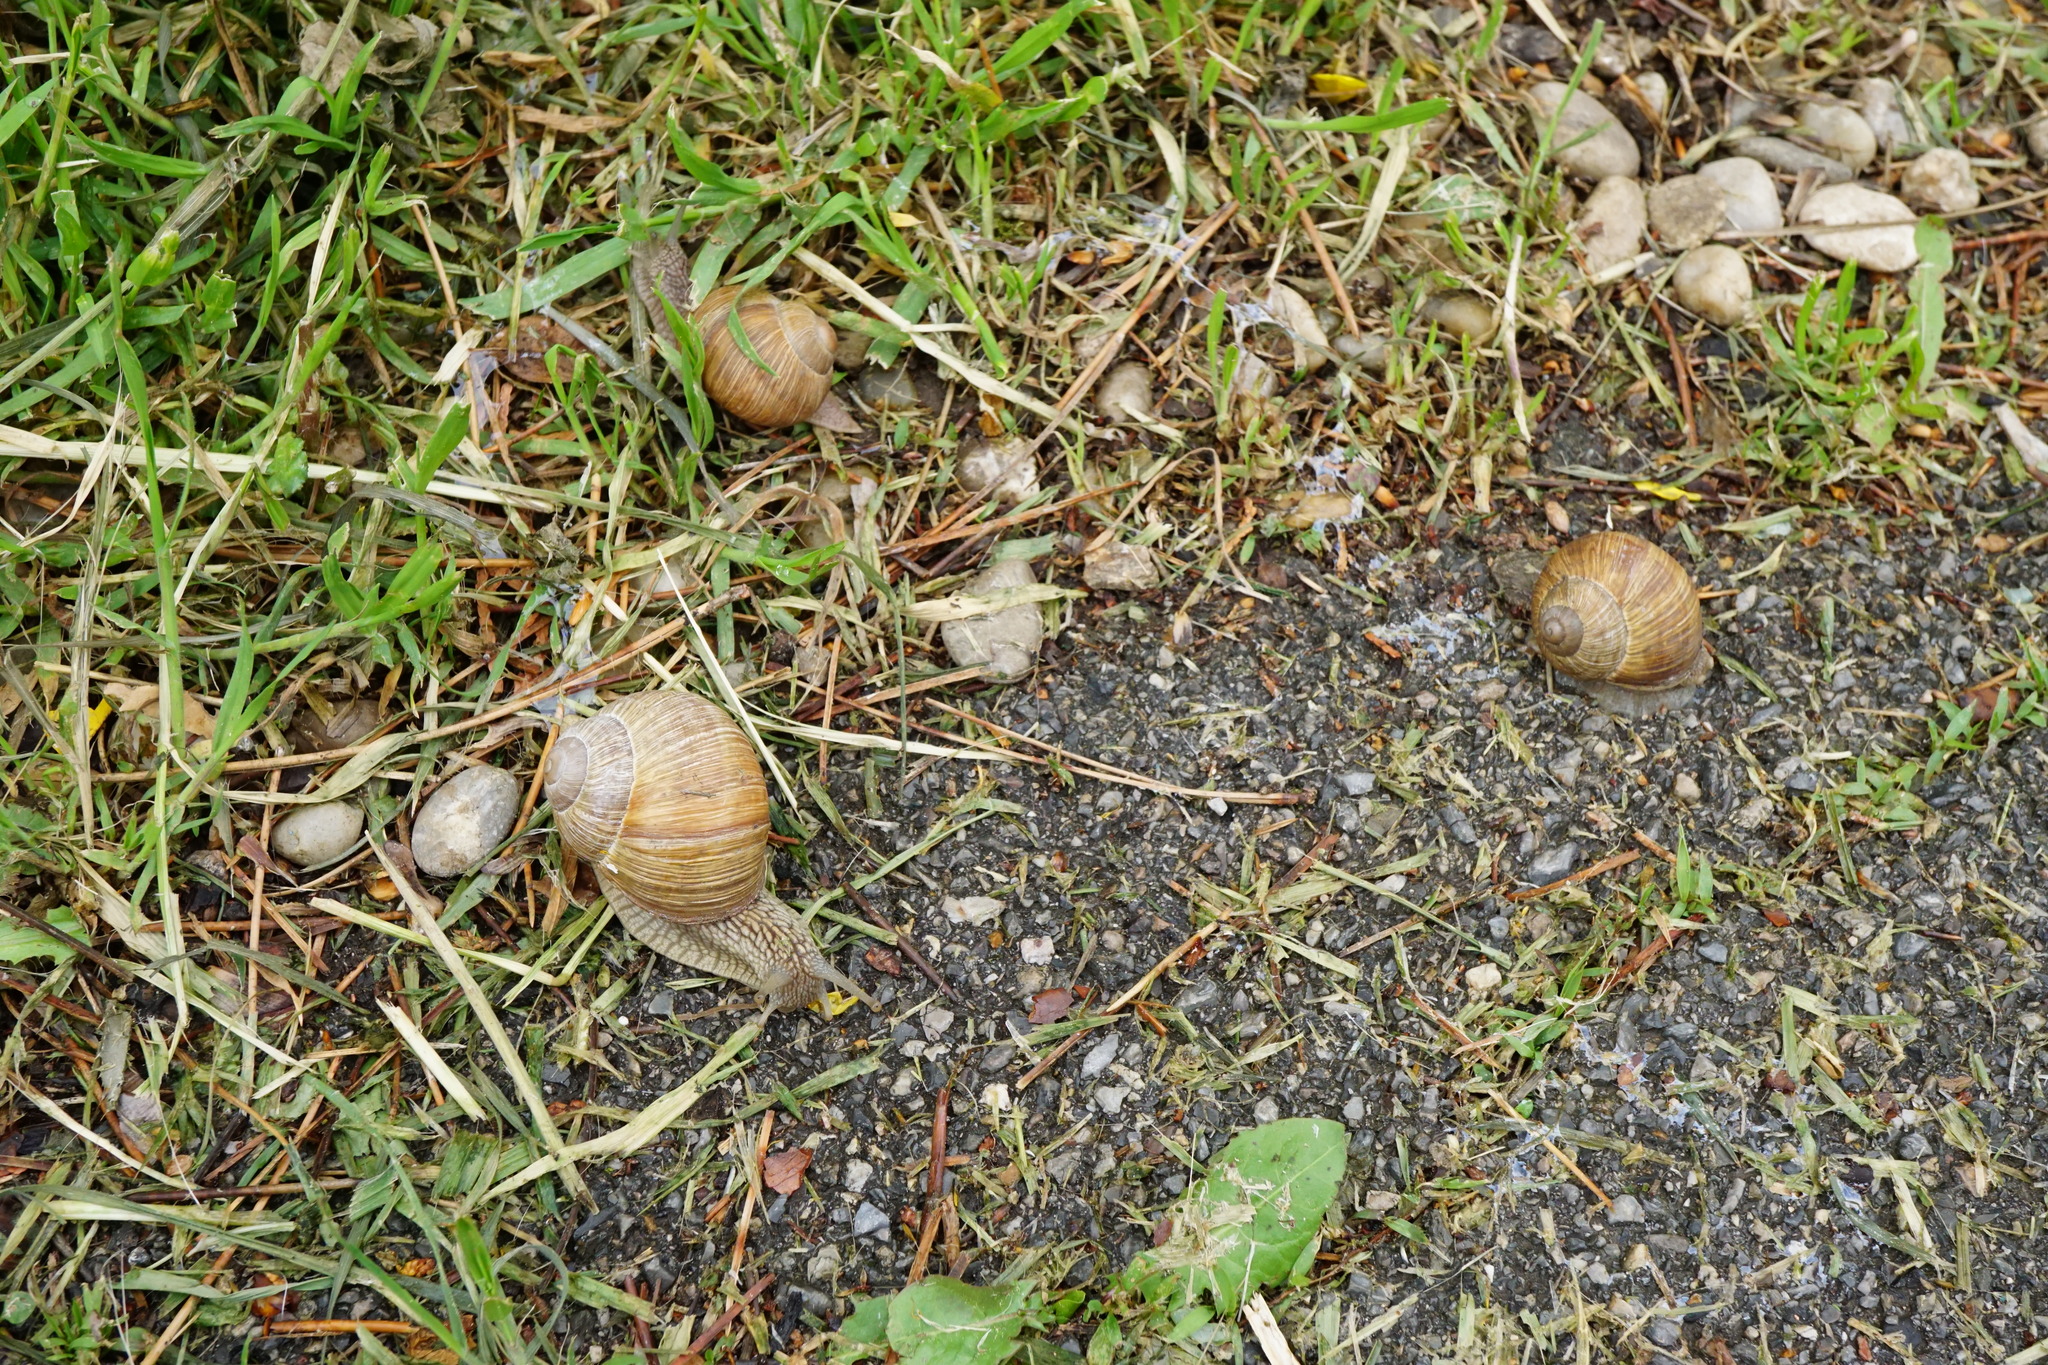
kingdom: Animalia
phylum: Mollusca
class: Gastropoda
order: Stylommatophora
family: Helicidae
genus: Helix
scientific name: Helix pomatia
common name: Roman snail
